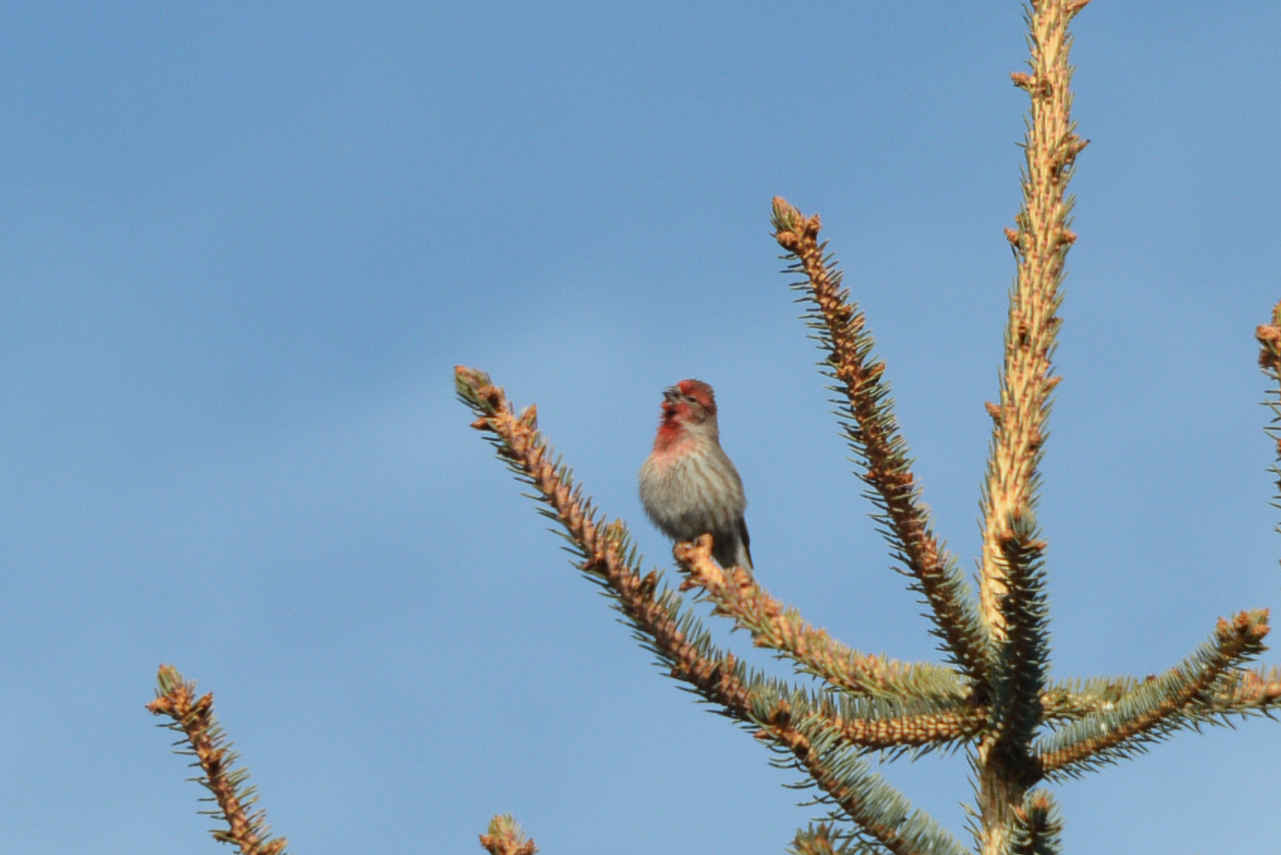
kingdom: Animalia
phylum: Chordata
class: Aves
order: Passeriformes
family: Fringillidae
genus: Haemorhous
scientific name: Haemorhous mexicanus
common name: House finch
